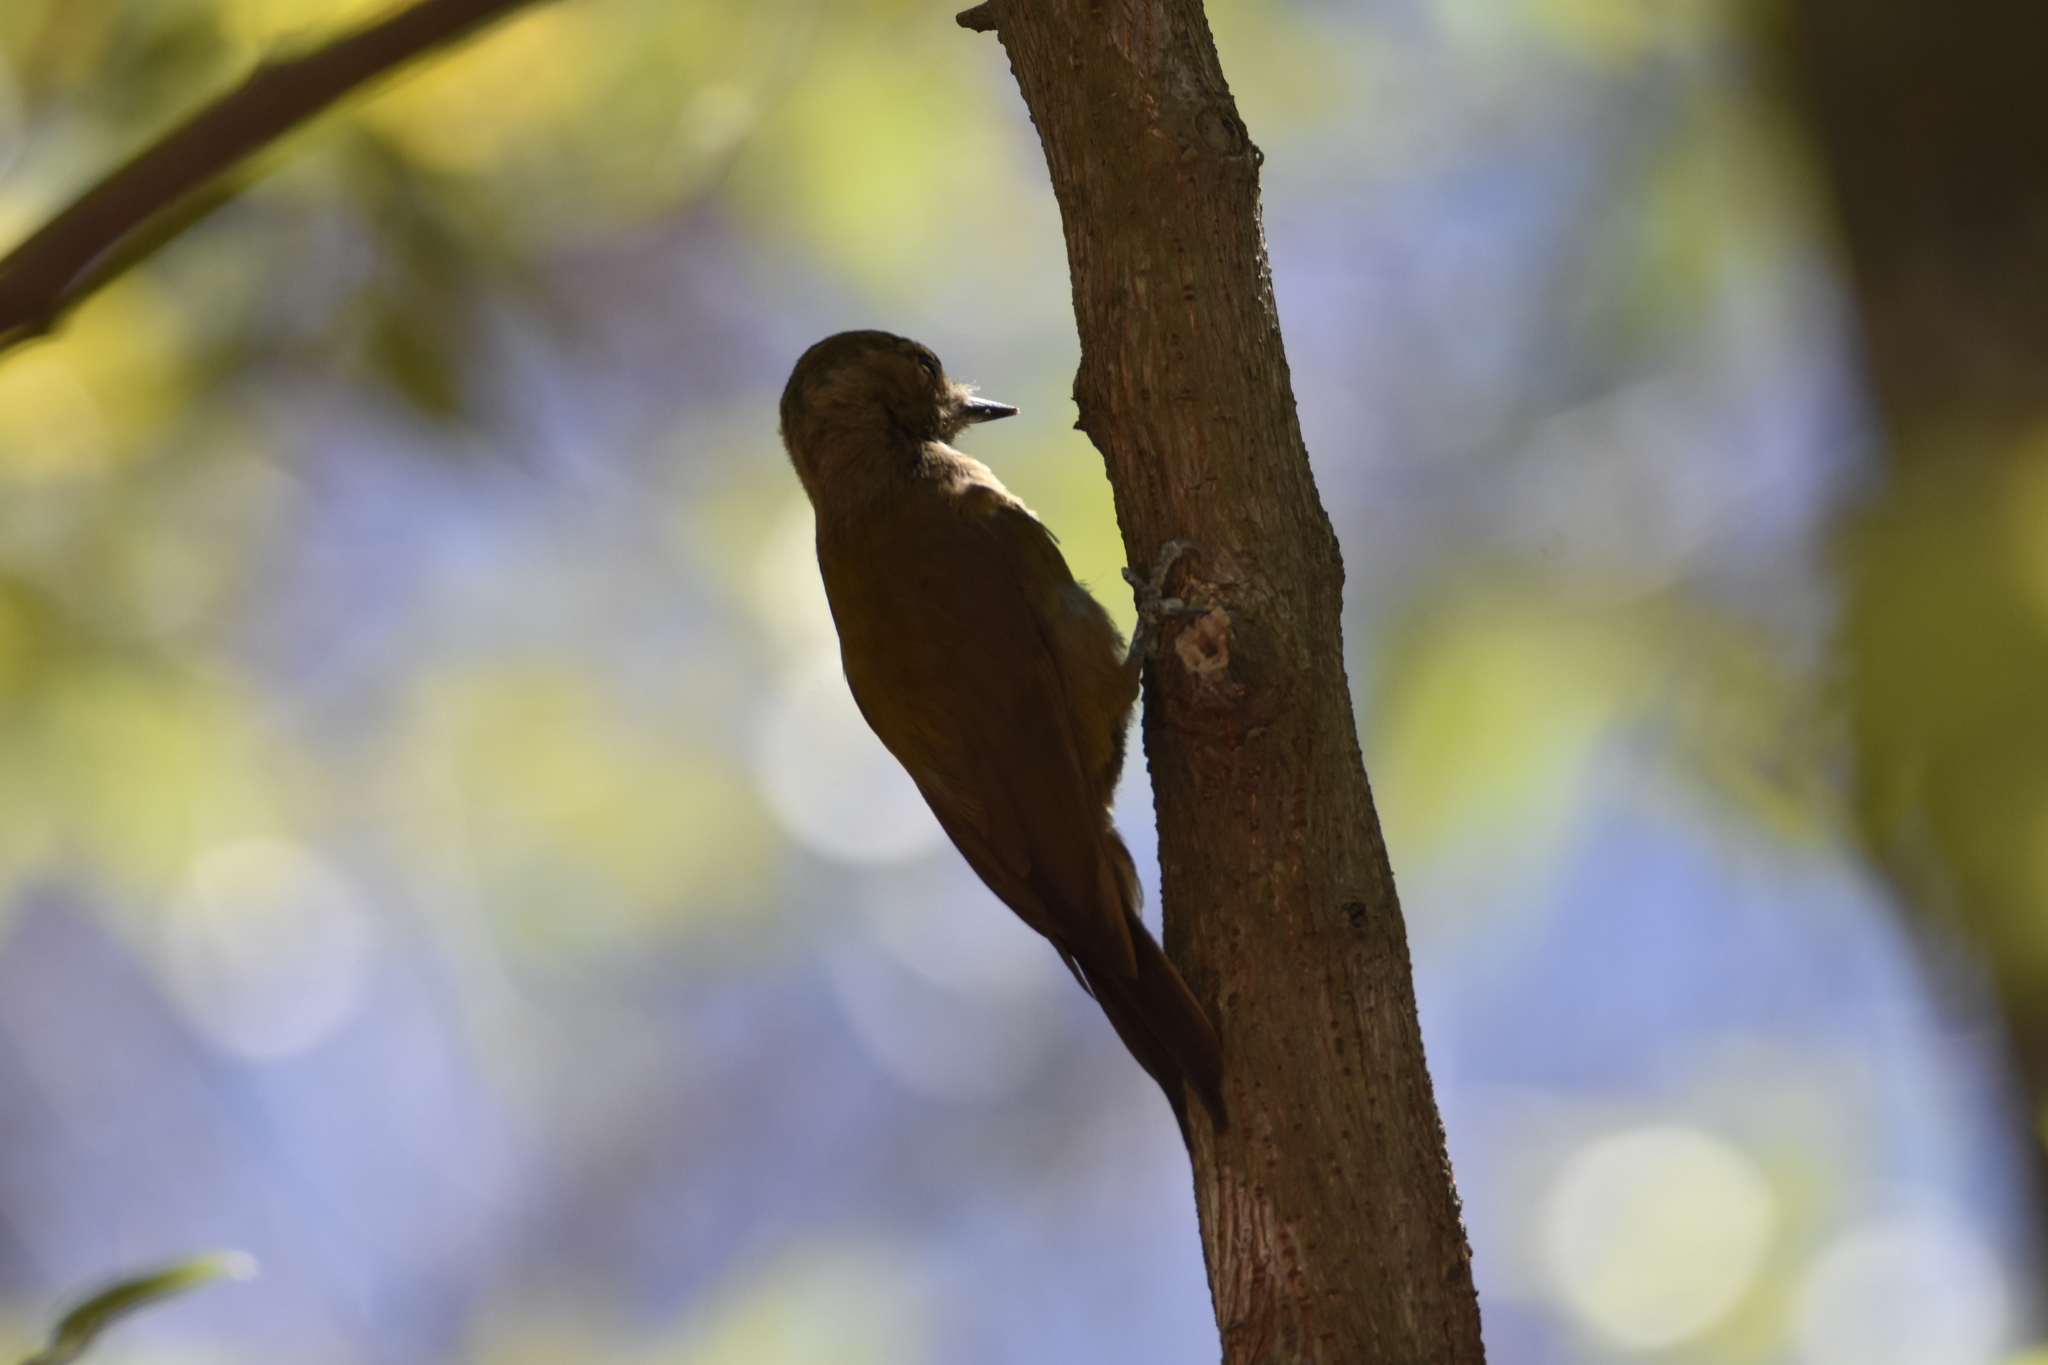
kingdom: Animalia
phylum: Chordata
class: Aves
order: Piciformes
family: Picidae
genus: Leuconotopicus
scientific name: Leuconotopicus fumigatus
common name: Smoky-brown woodpecker
